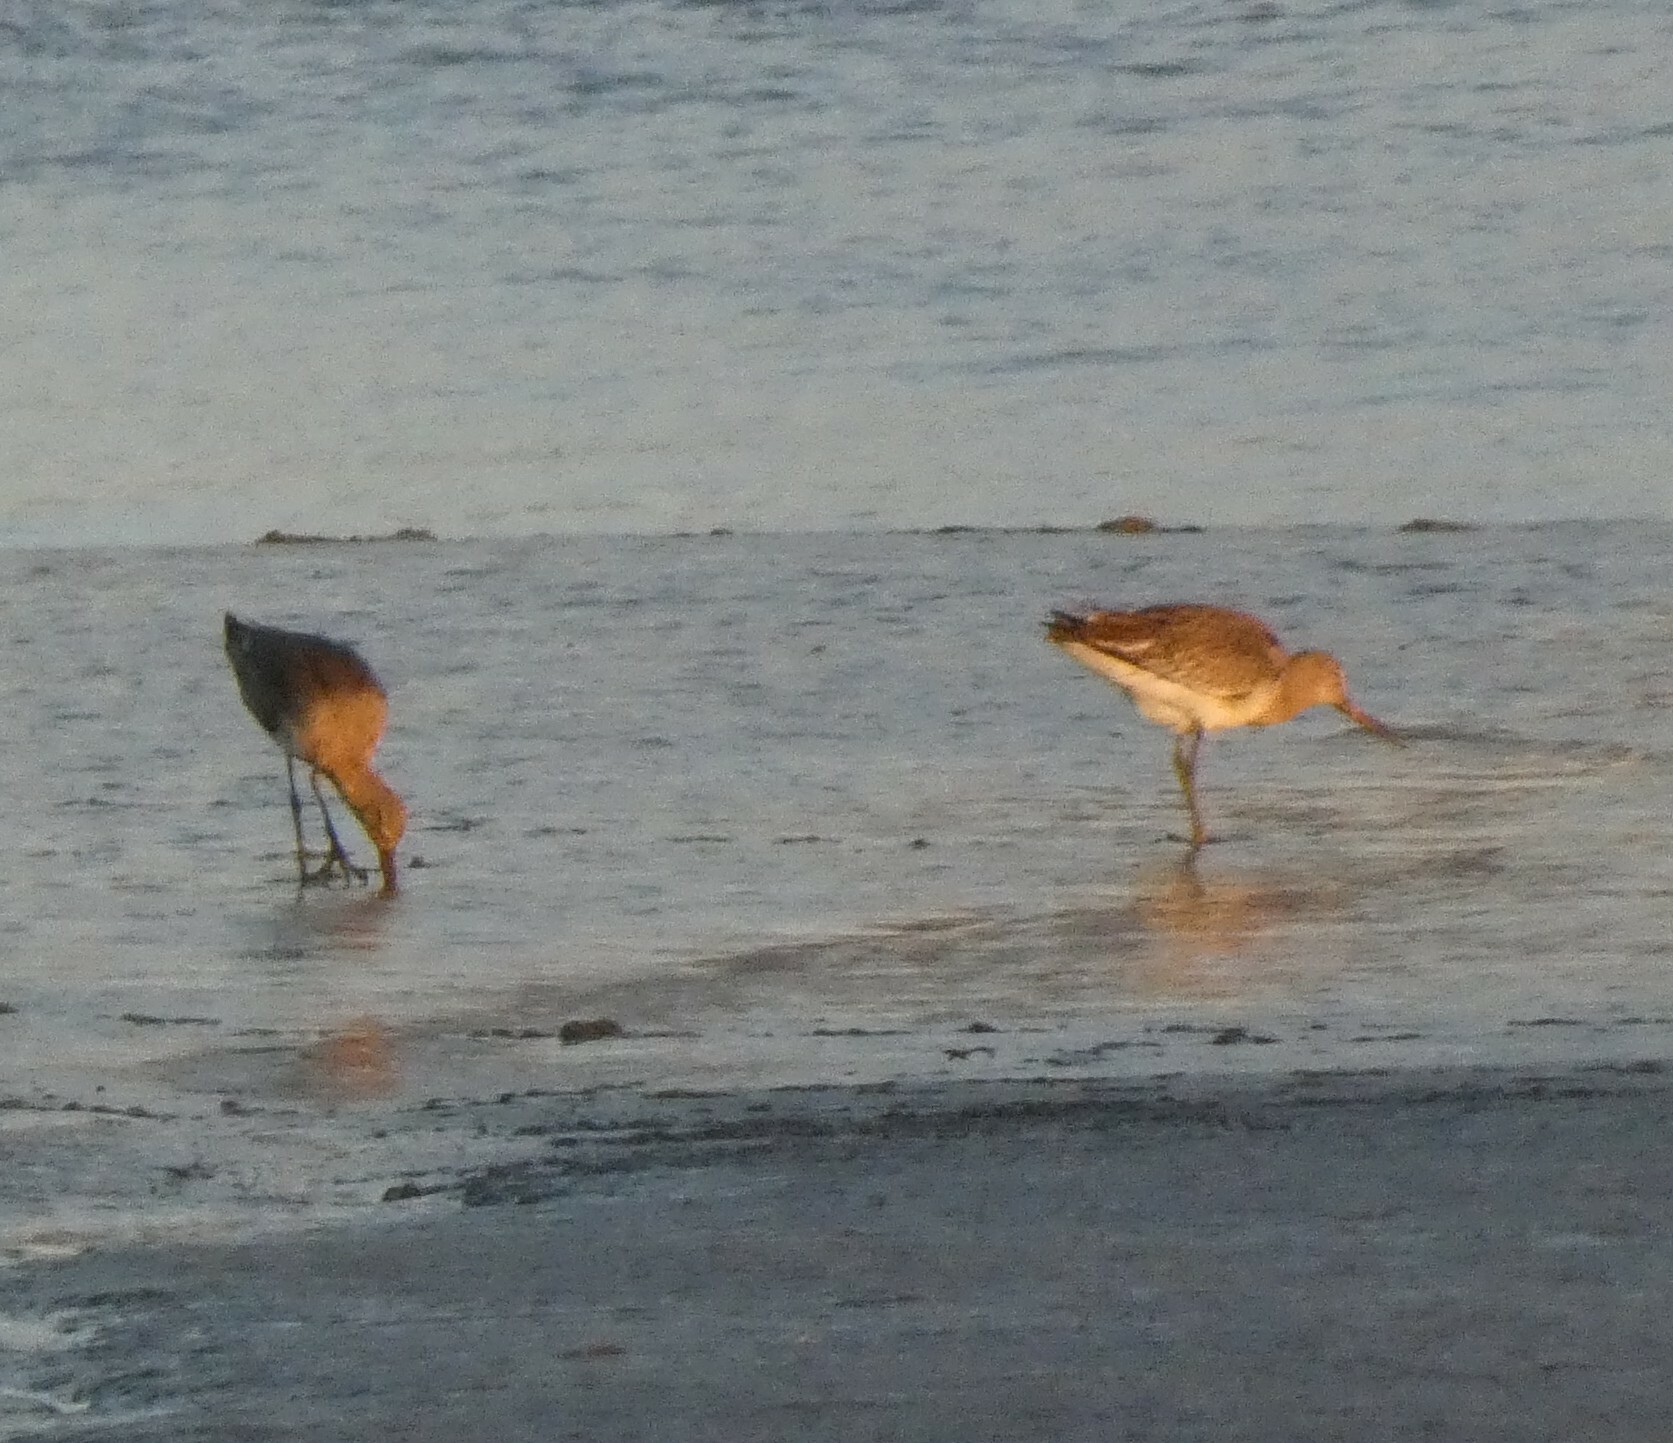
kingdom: Animalia
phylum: Chordata
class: Aves
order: Charadriiformes
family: Scolopacidae
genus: Limosa
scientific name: Limosa limosa
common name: Black-tailed godwit
